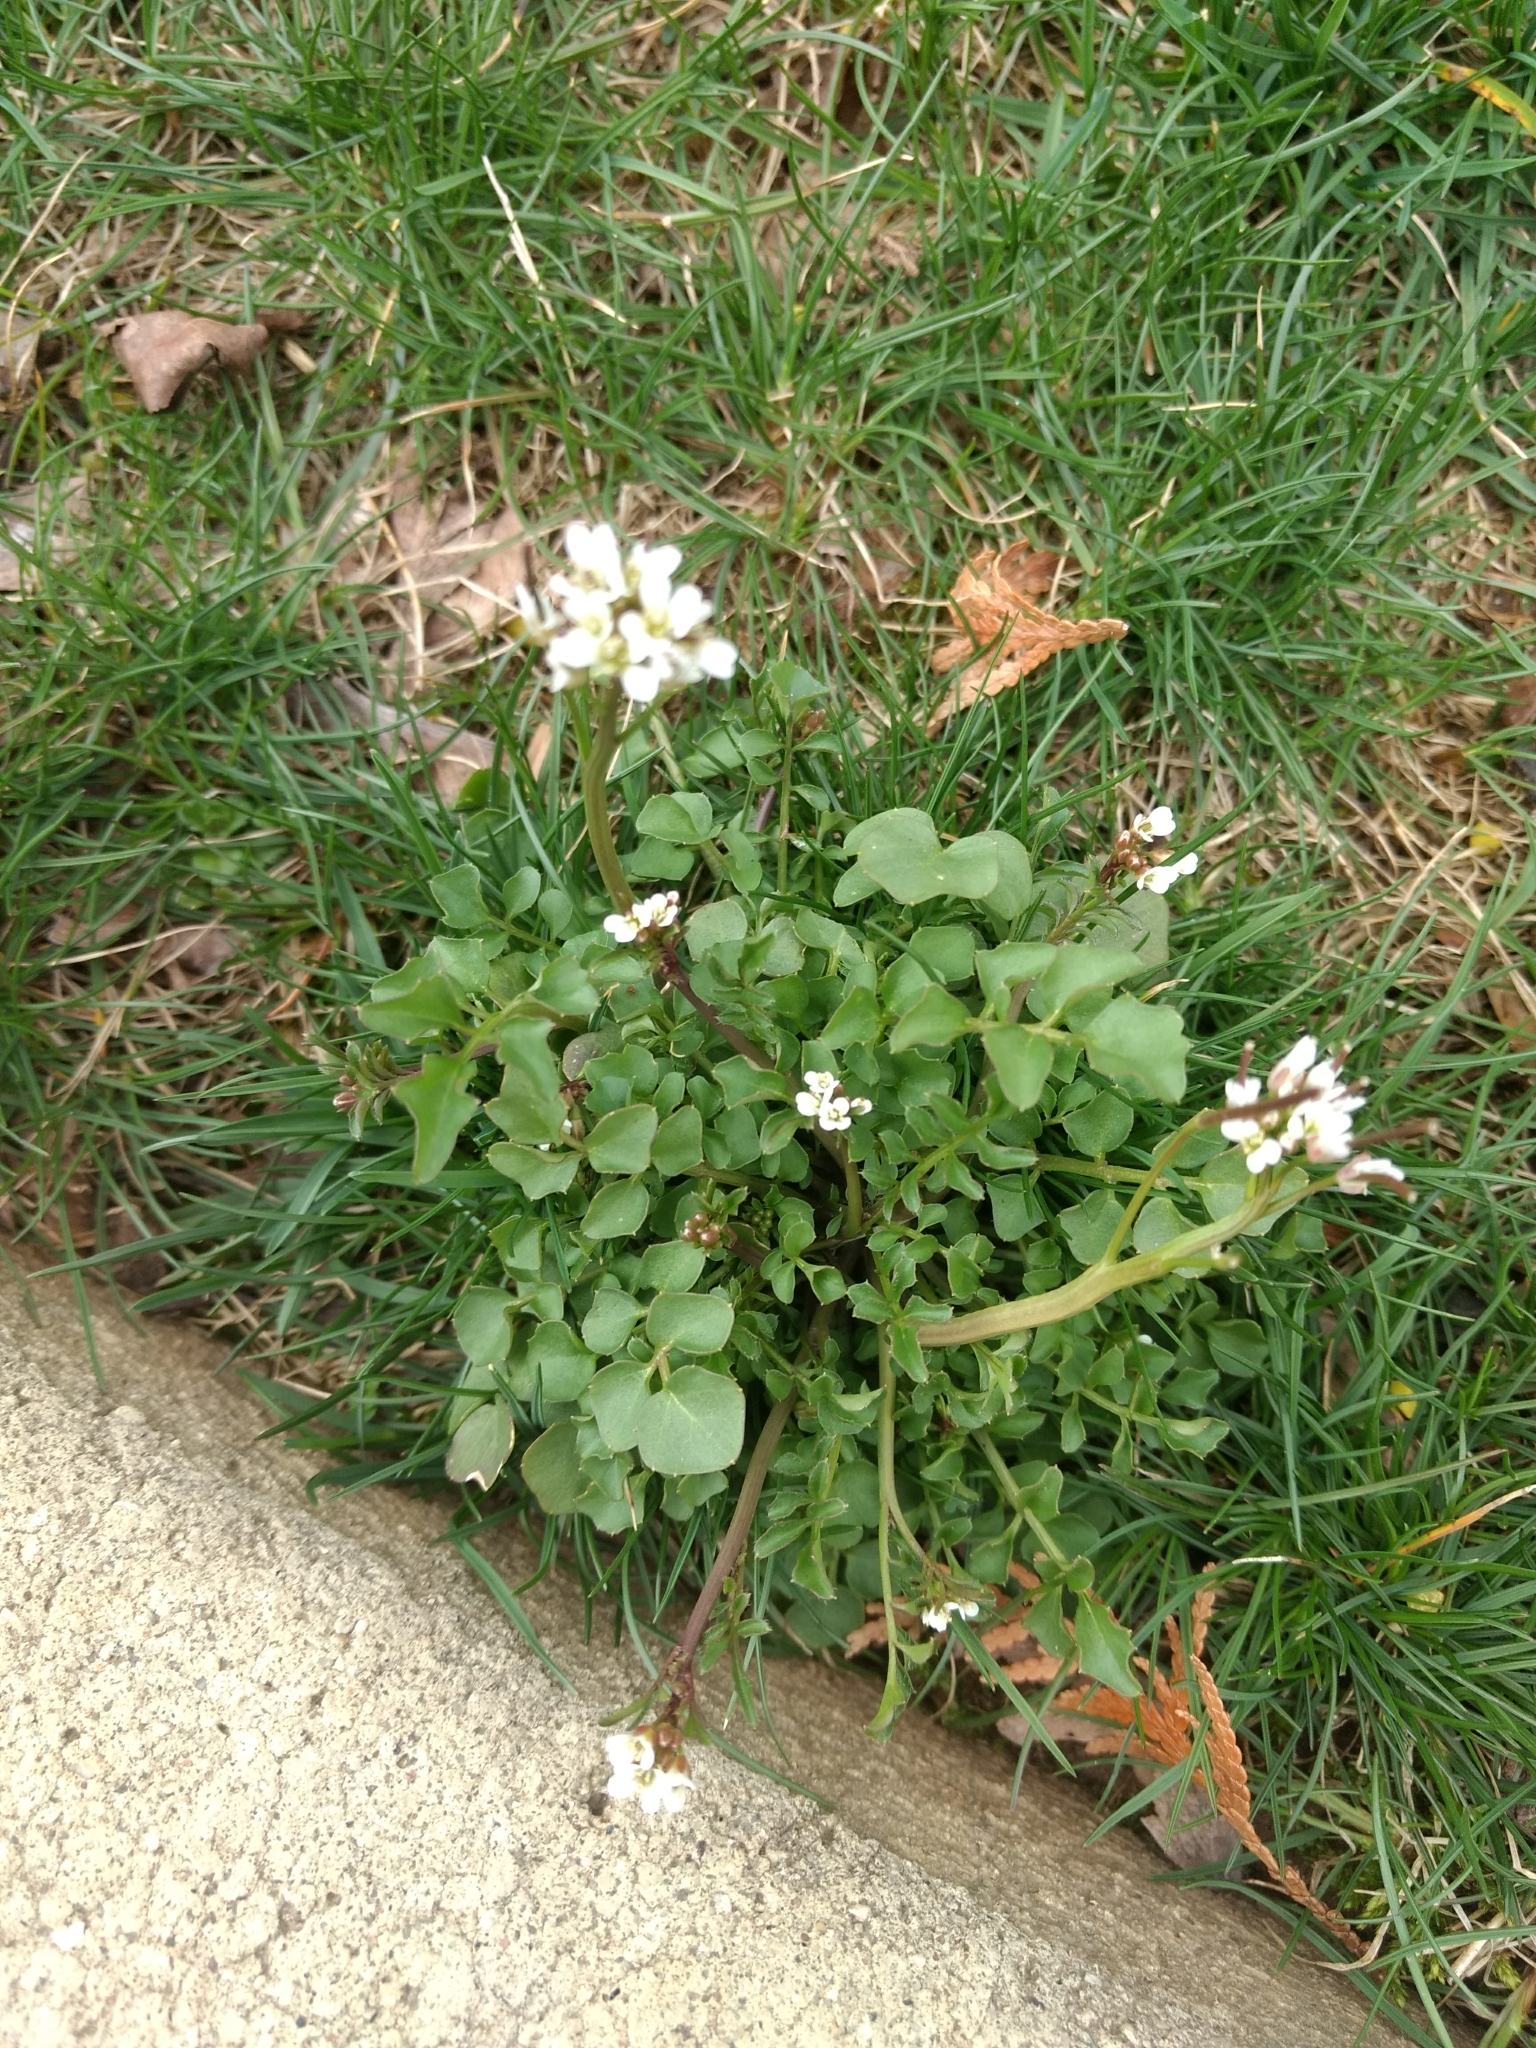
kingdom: Plantae
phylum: Tracheophyta
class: Magnoliopsida
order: Brassicales
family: Brassicaceae
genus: Cardamine
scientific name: Cardamine hirsuta
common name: Hairy bittercress
